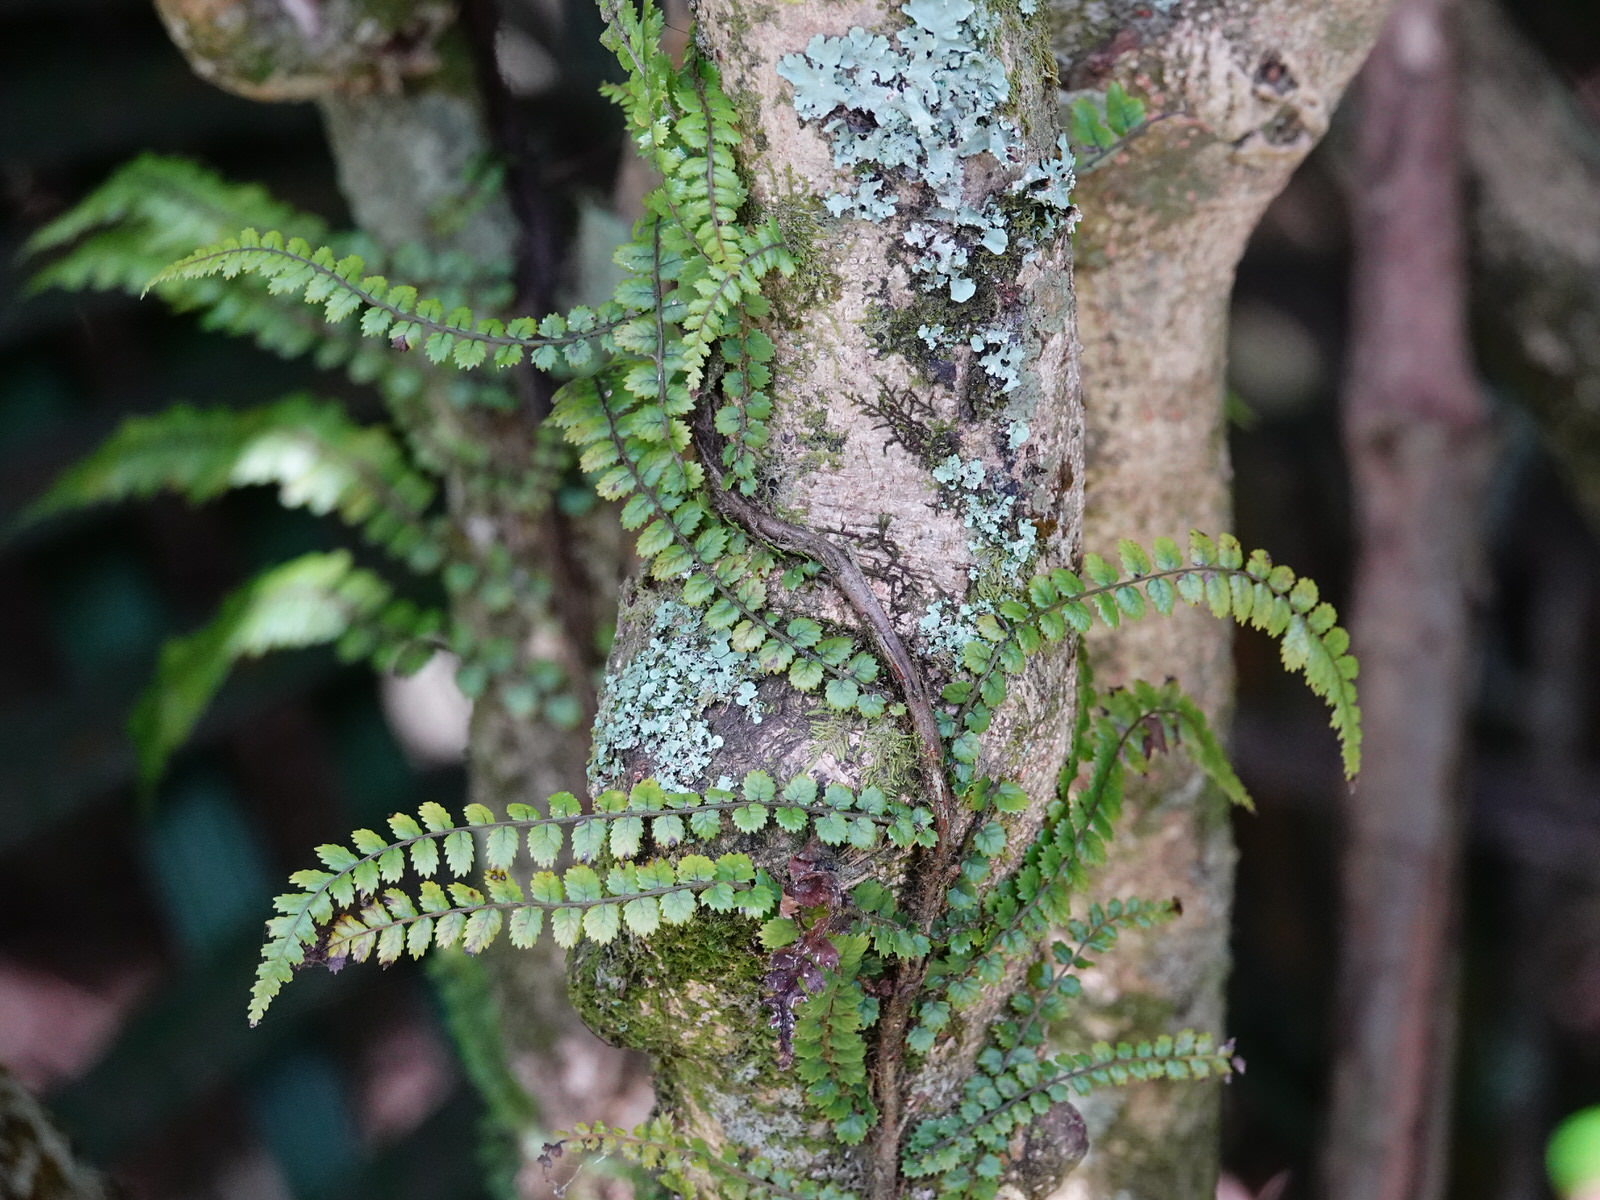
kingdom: Plantae
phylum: Tracheophyta
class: Polypodiopsida
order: Polypodiales
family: Blechnaceae
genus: Icarus
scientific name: Icarus filiformis
